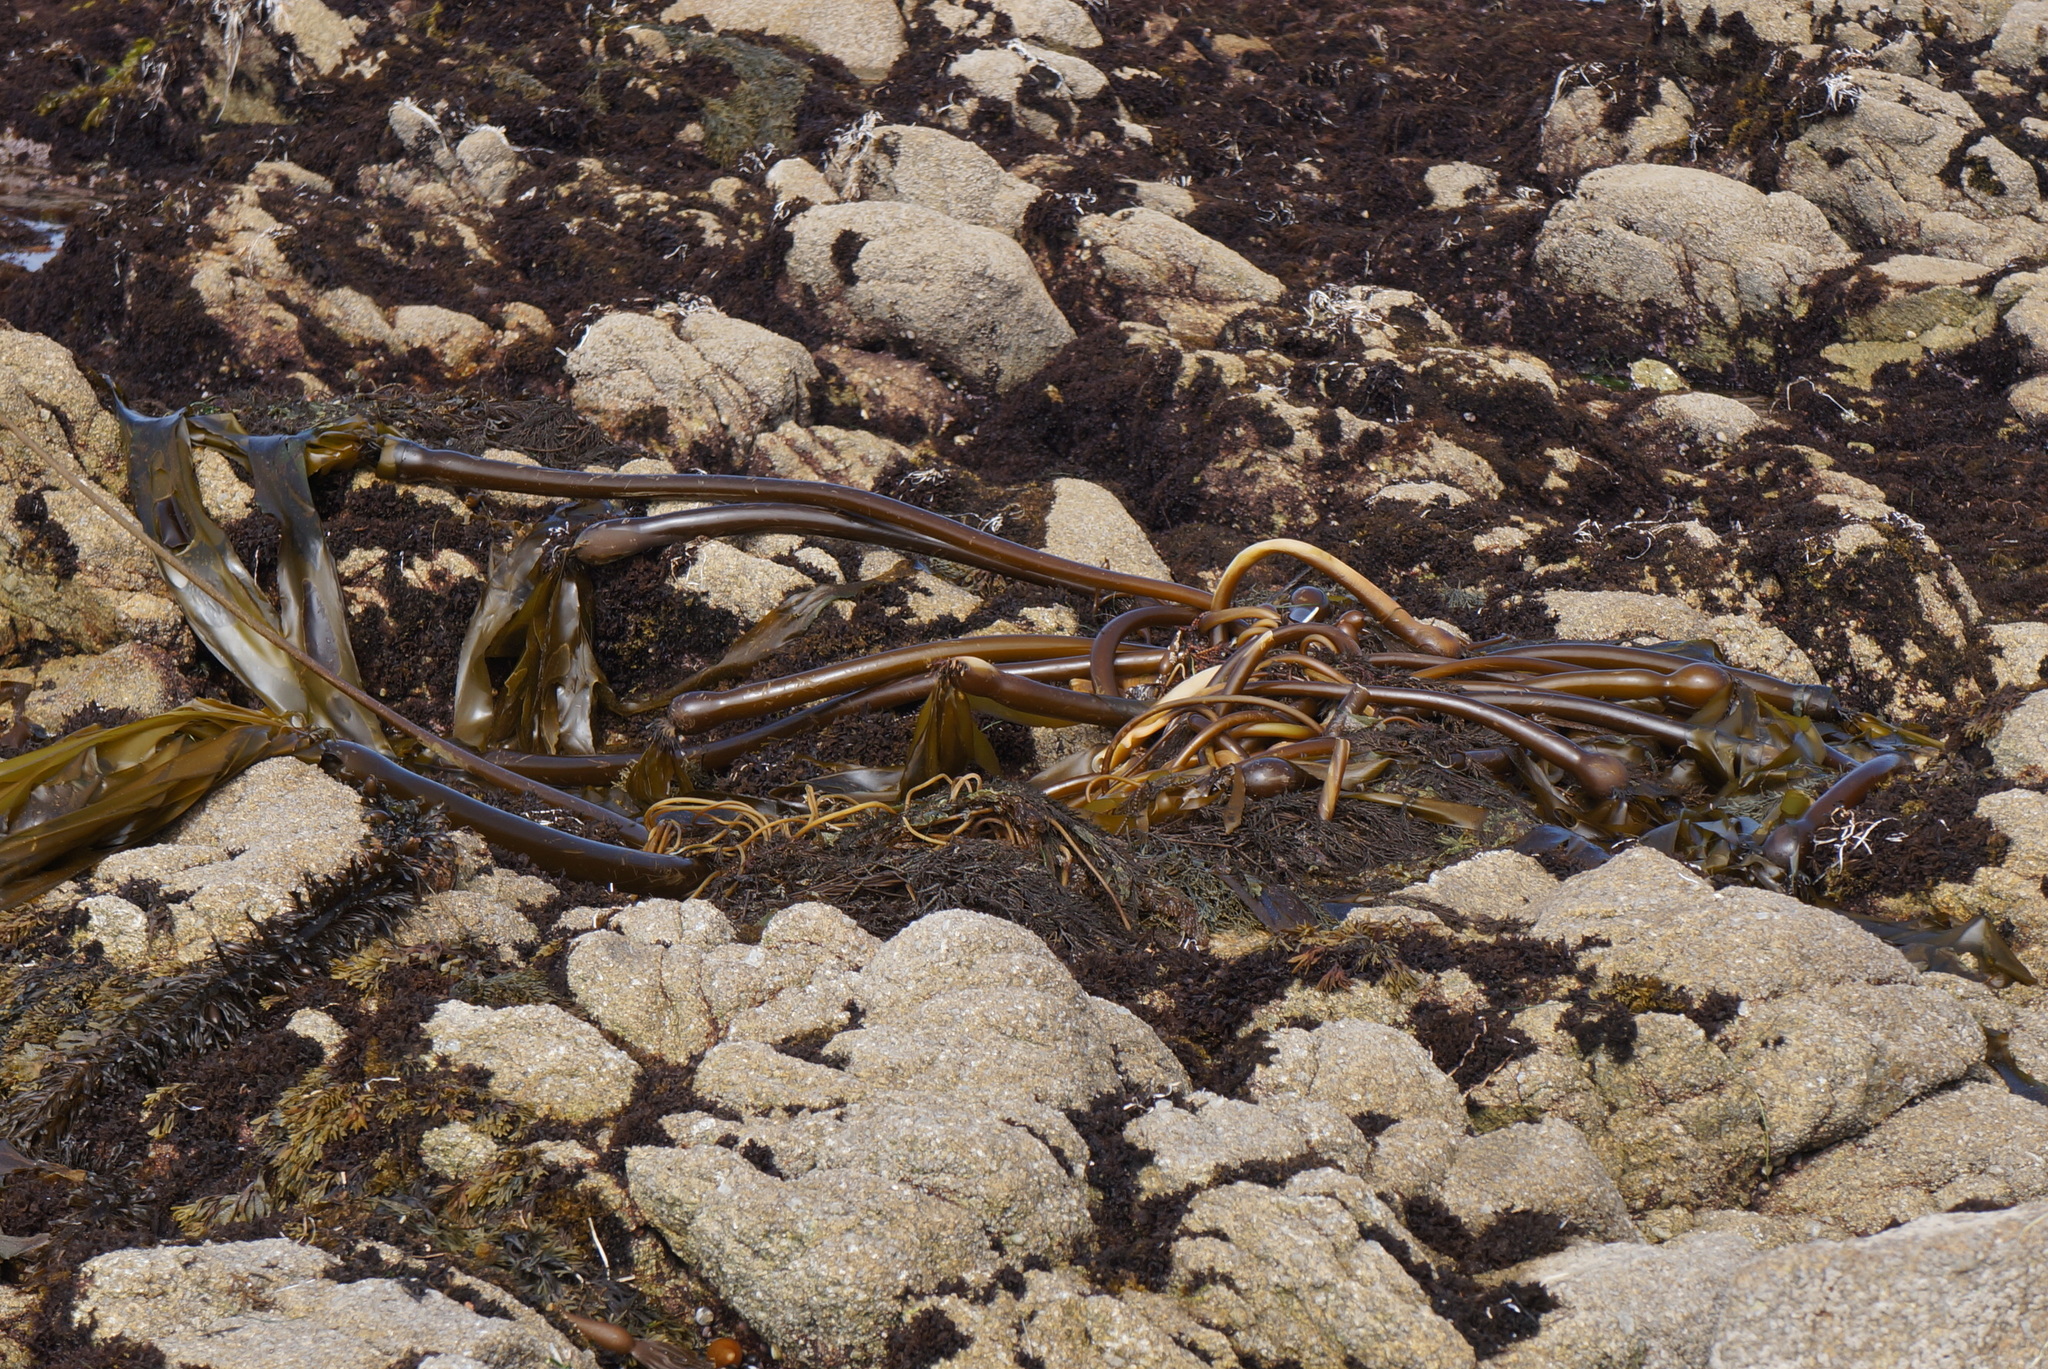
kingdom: Chromista
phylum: Ochrophyta
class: Phaeophyceae
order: Laminariales
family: Laminariaceae
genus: Nereocystis
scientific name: Nereocystis luetkeana
